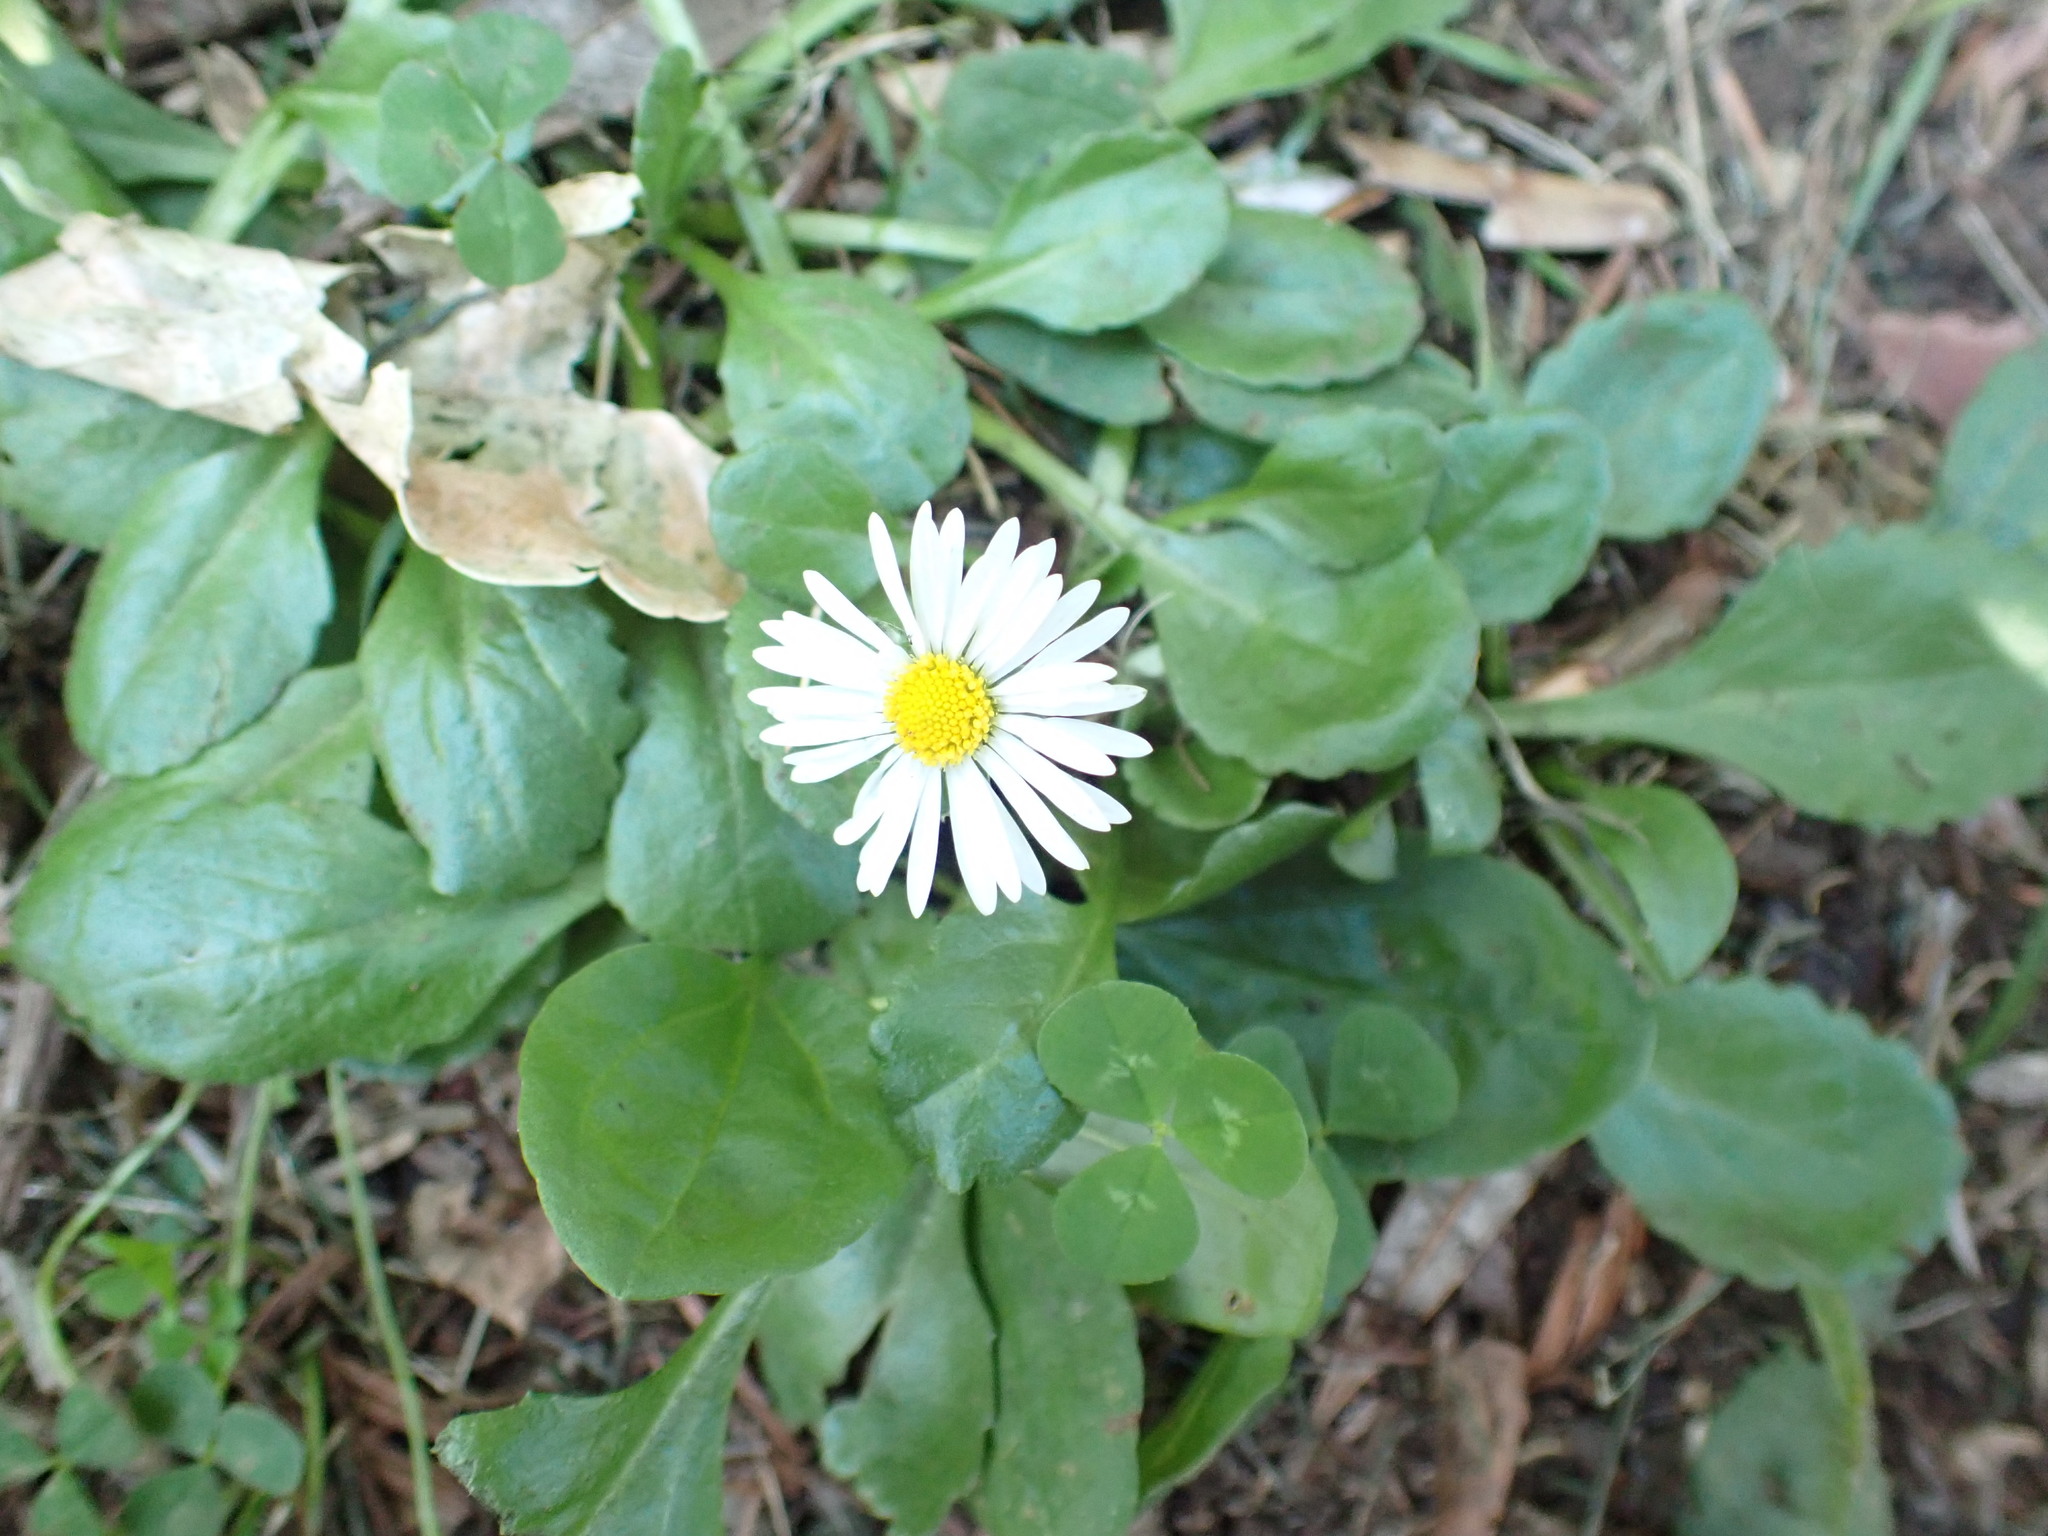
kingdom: Plantae
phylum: Tracheophyta
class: Magnoliopsida
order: Asterales
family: Asteraceae
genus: Bellis
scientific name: Bellis perennis
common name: Lawndaisy
